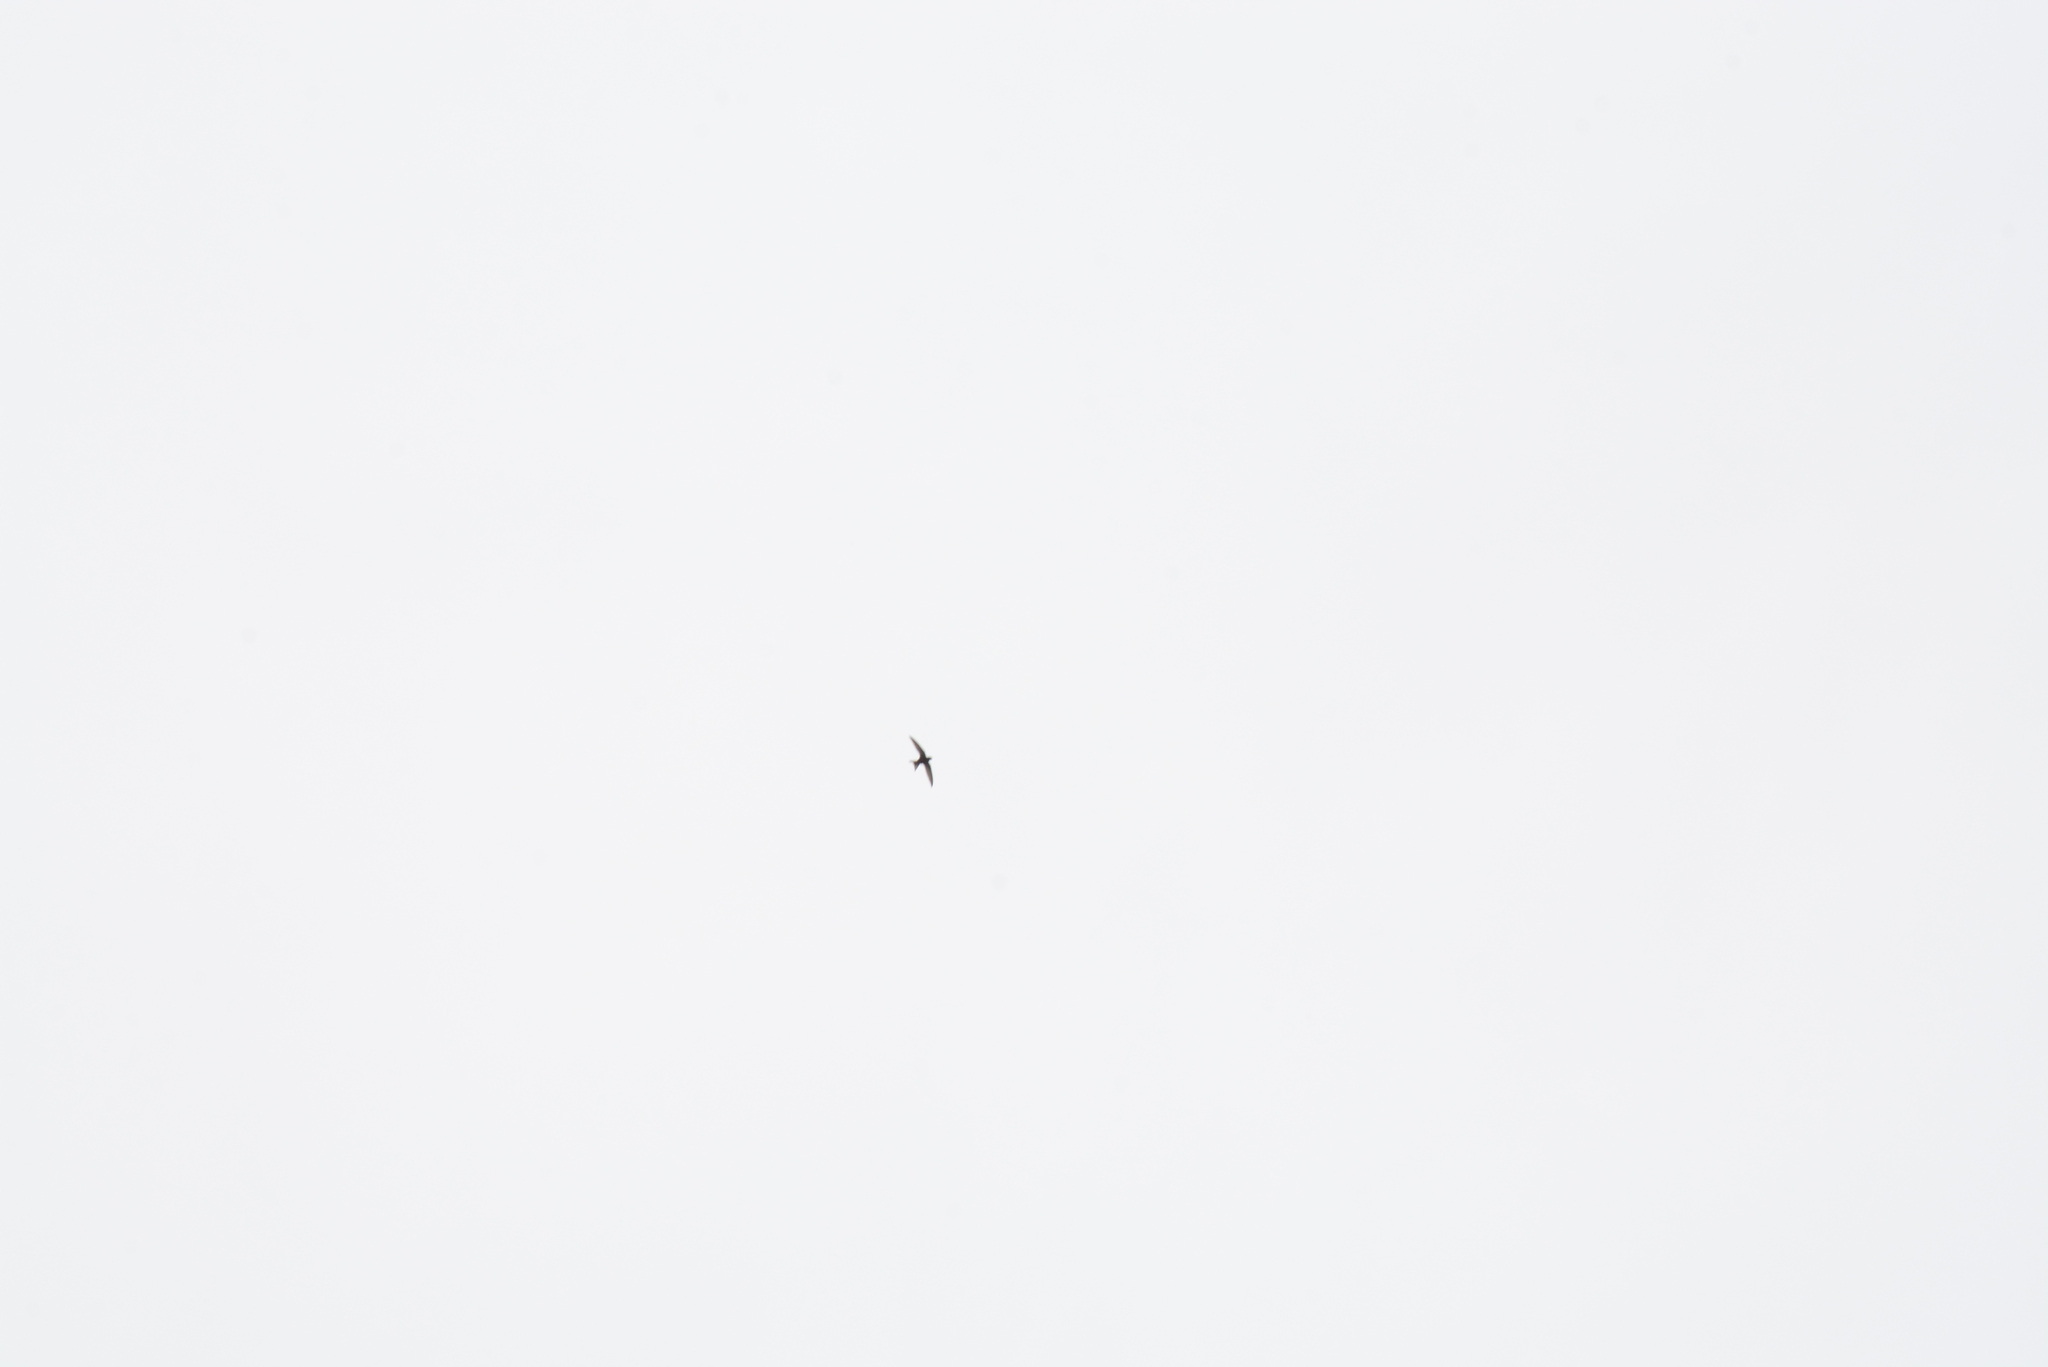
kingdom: Animalia
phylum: Chordata
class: Aves
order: Apodiformes
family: Apodidae
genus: Apus
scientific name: Apus apus
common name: Common swift
